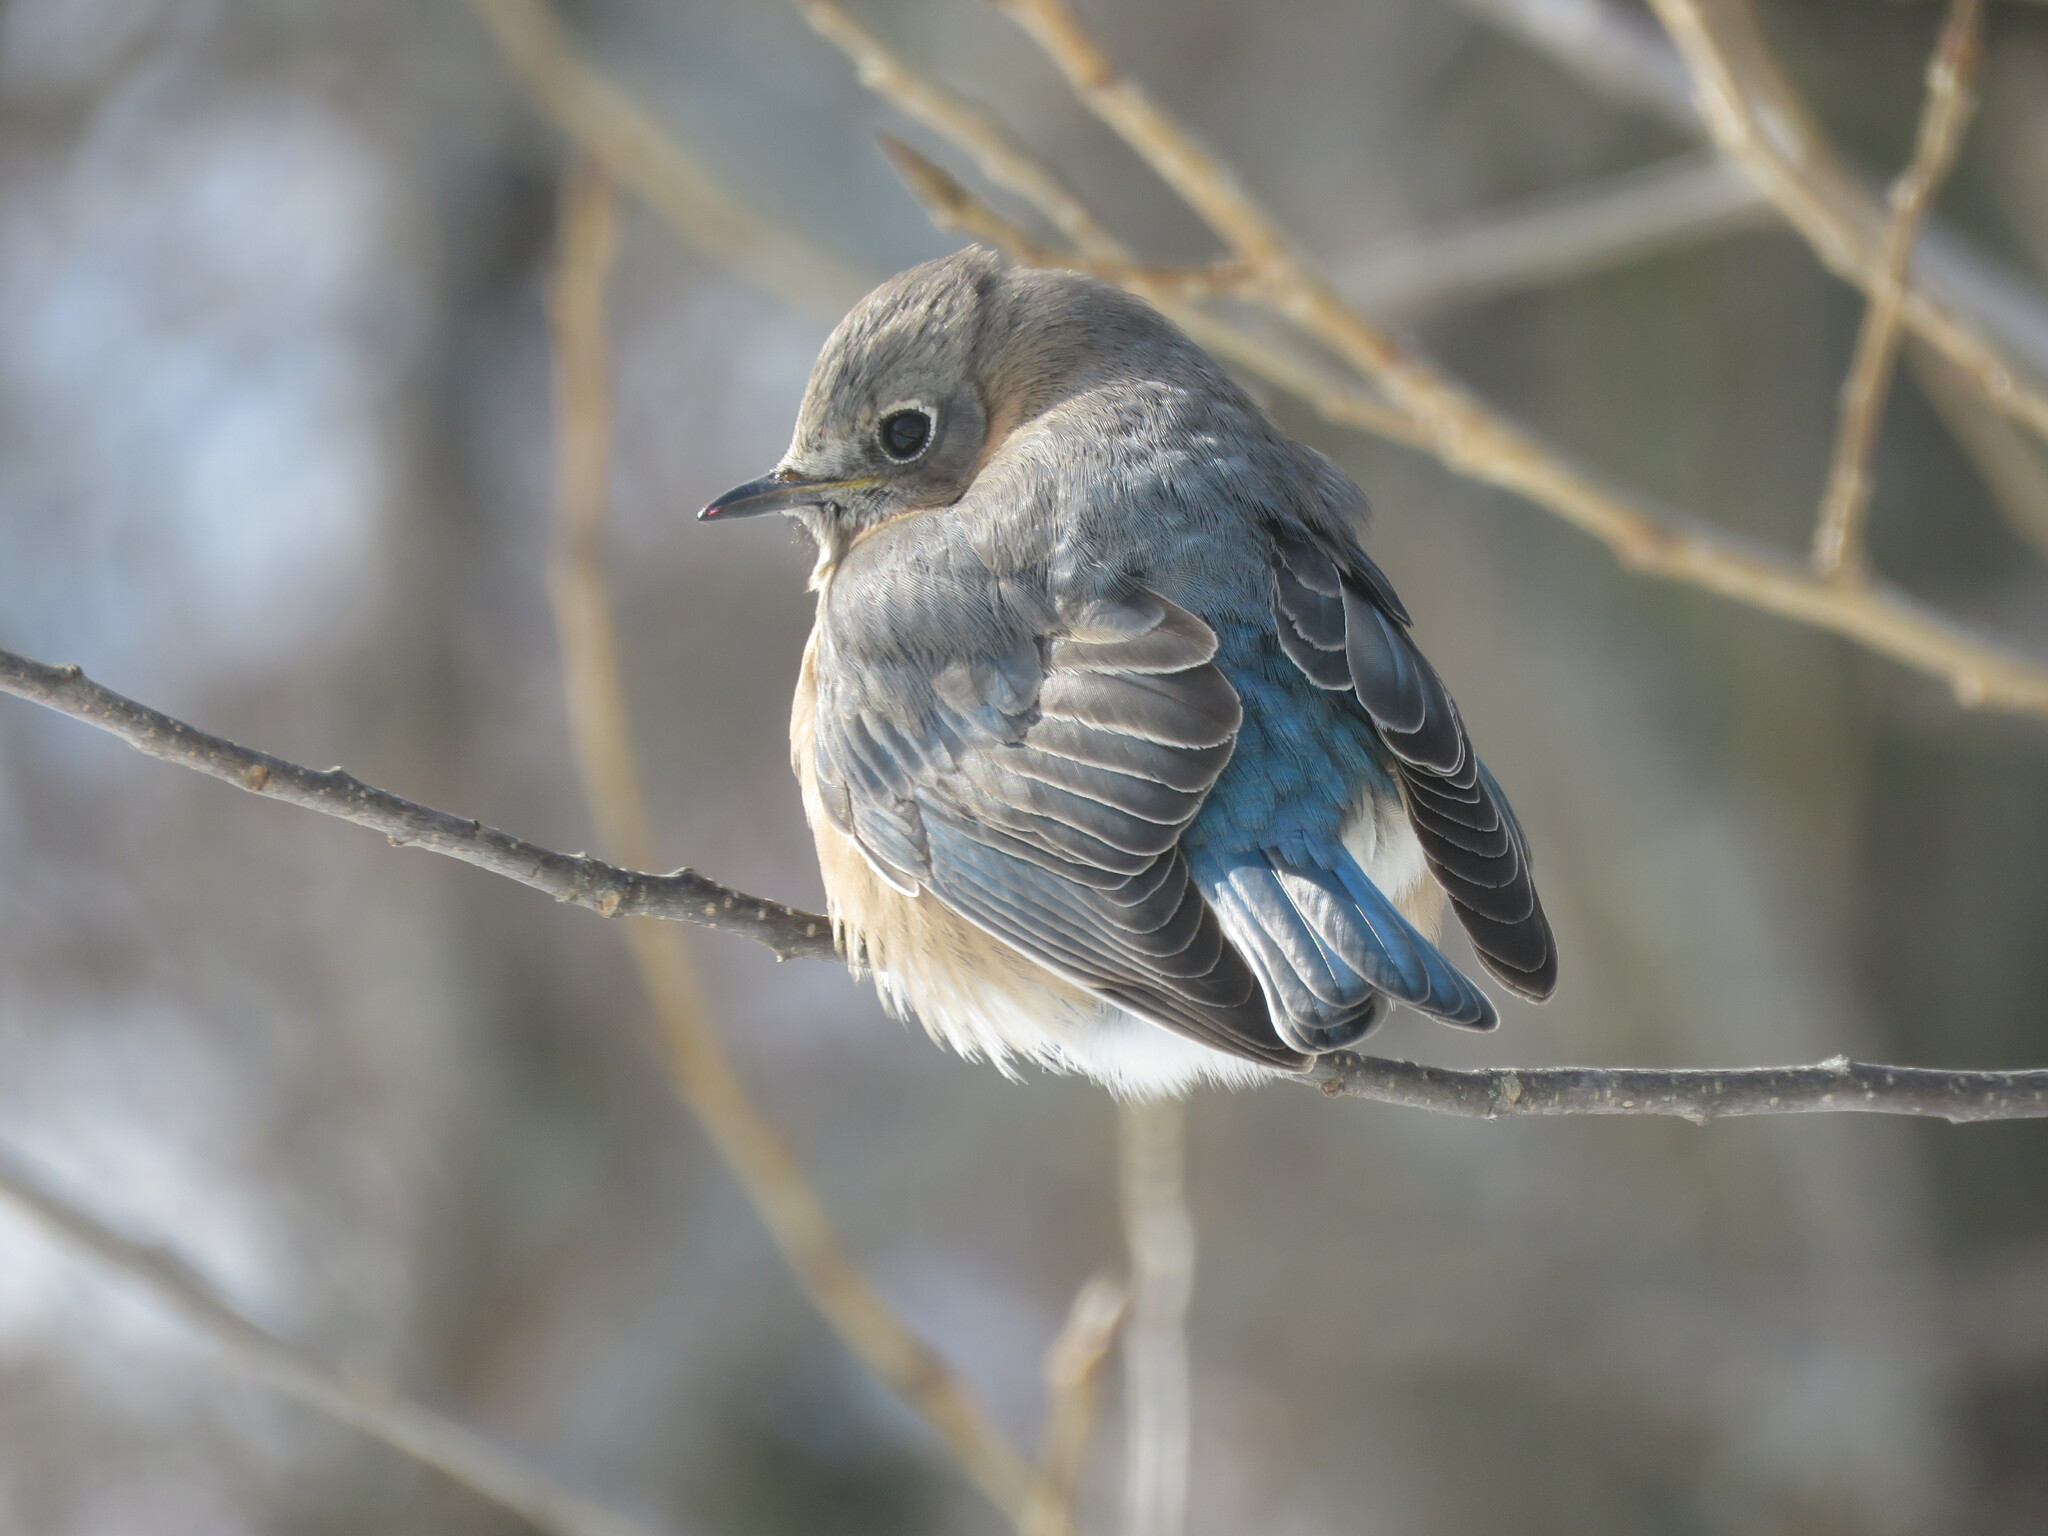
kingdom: Animalia
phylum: Chordata
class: Aves
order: Passeriformes
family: Turdidae
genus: Sialia
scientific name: Sialia sialis
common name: Eastern bluebird
